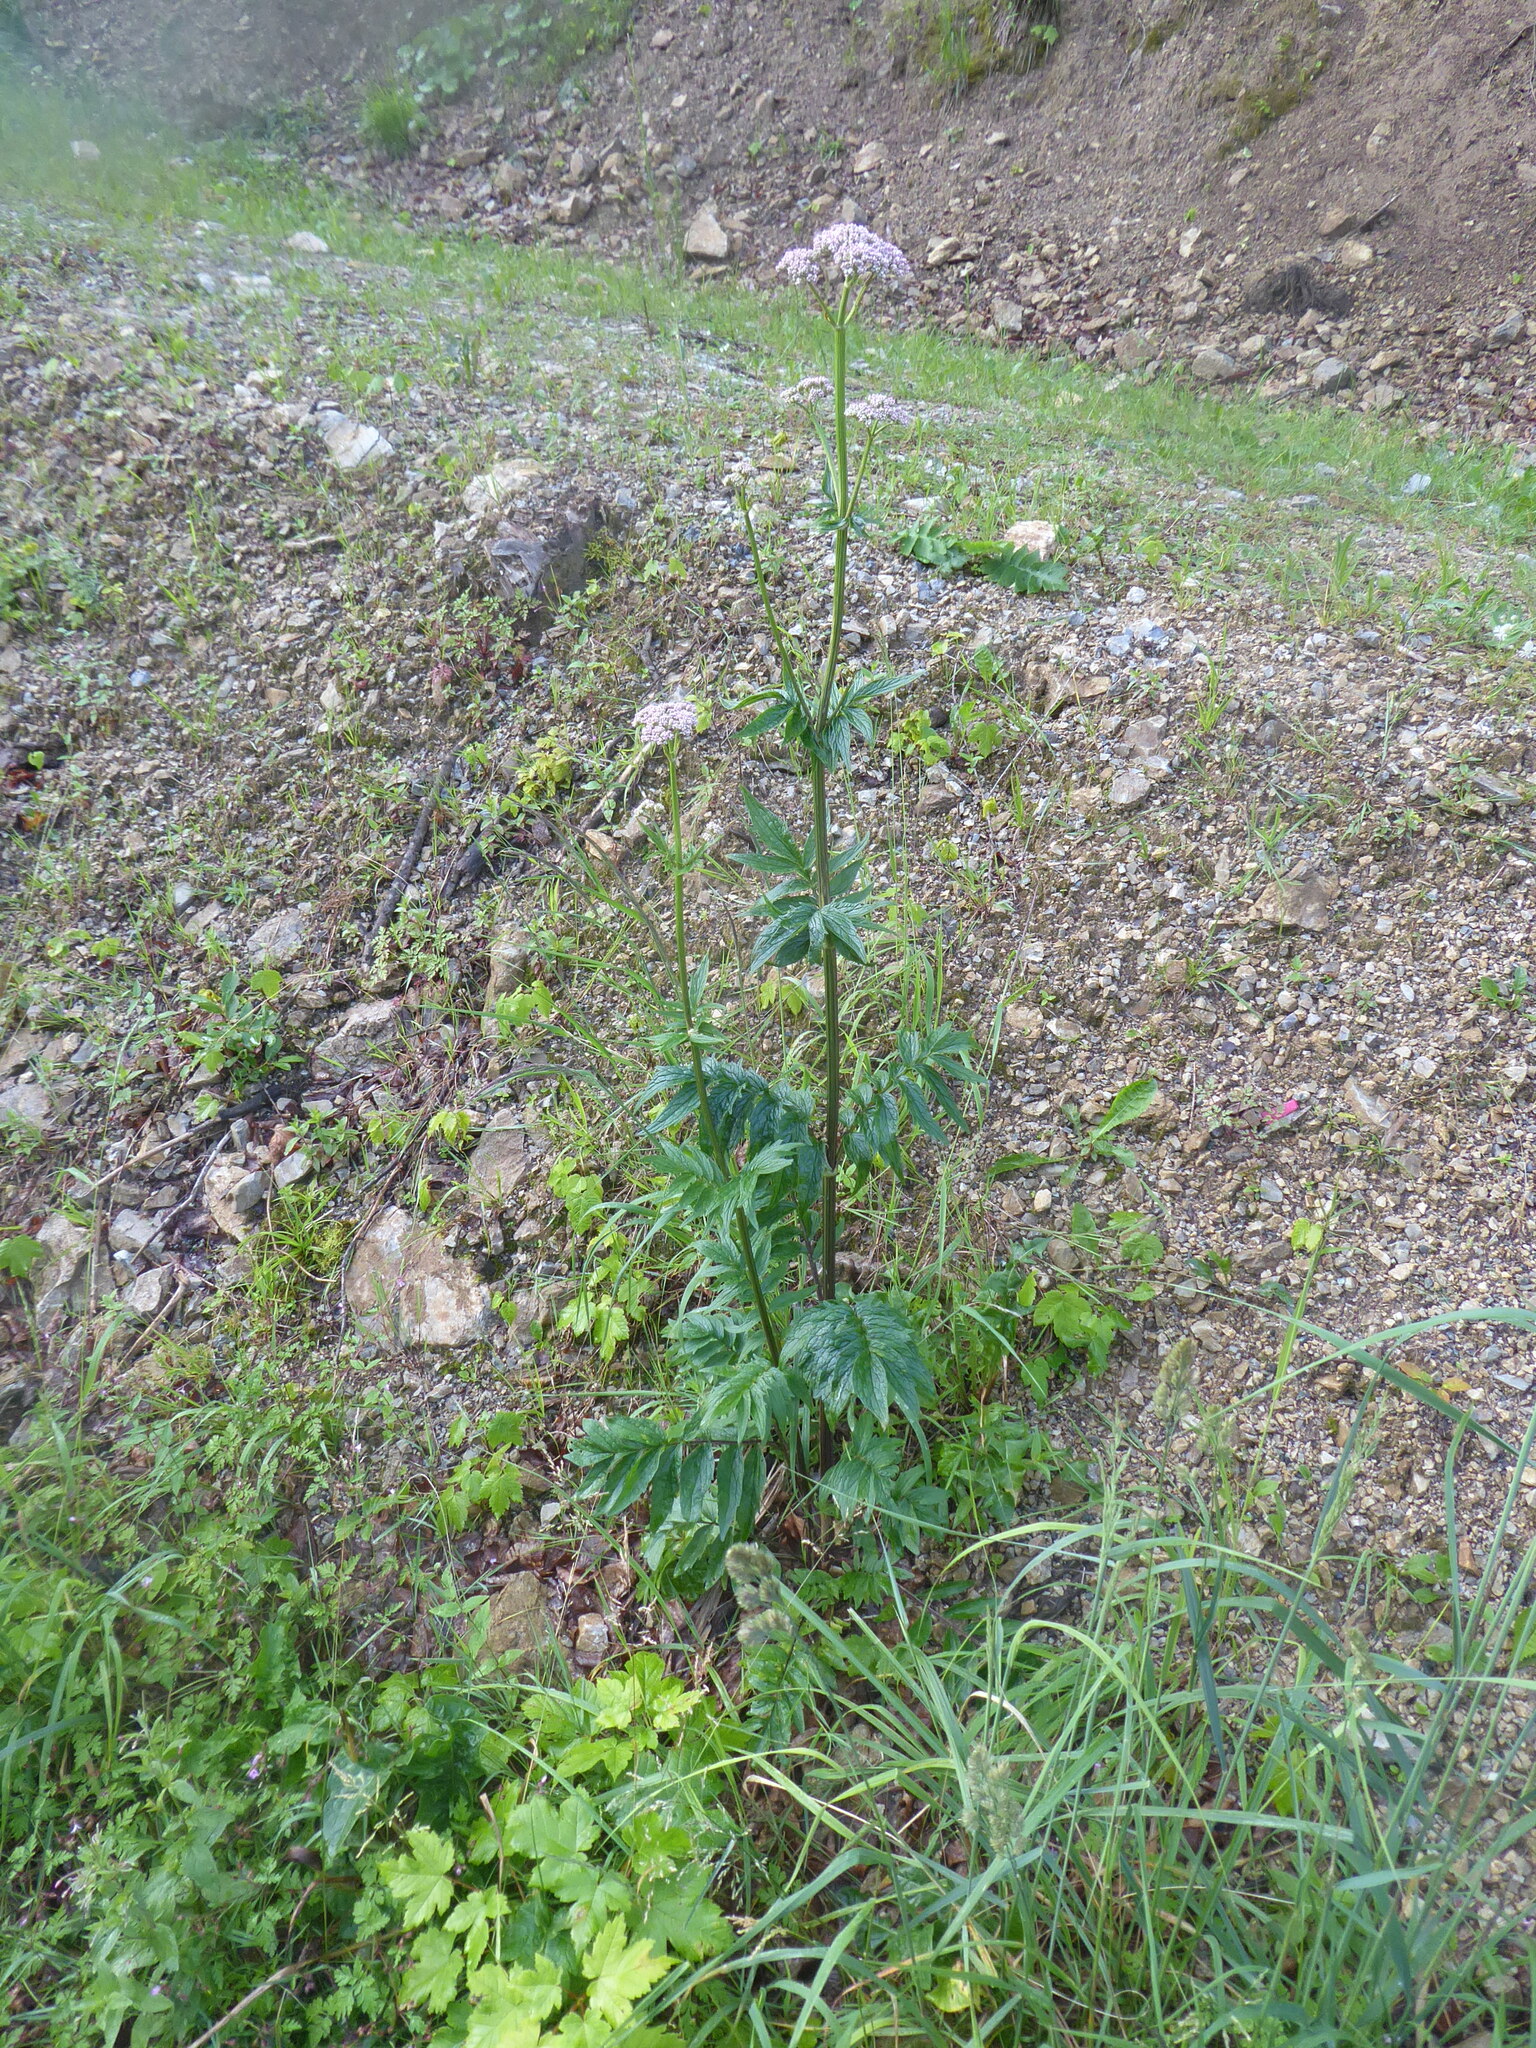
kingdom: Plantae
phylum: Tracheophyta
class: Magnoliopsida
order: Dipsacales
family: Caprifoliaceae
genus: Valeriana
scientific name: Valeriana officinalis
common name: Common valerian
